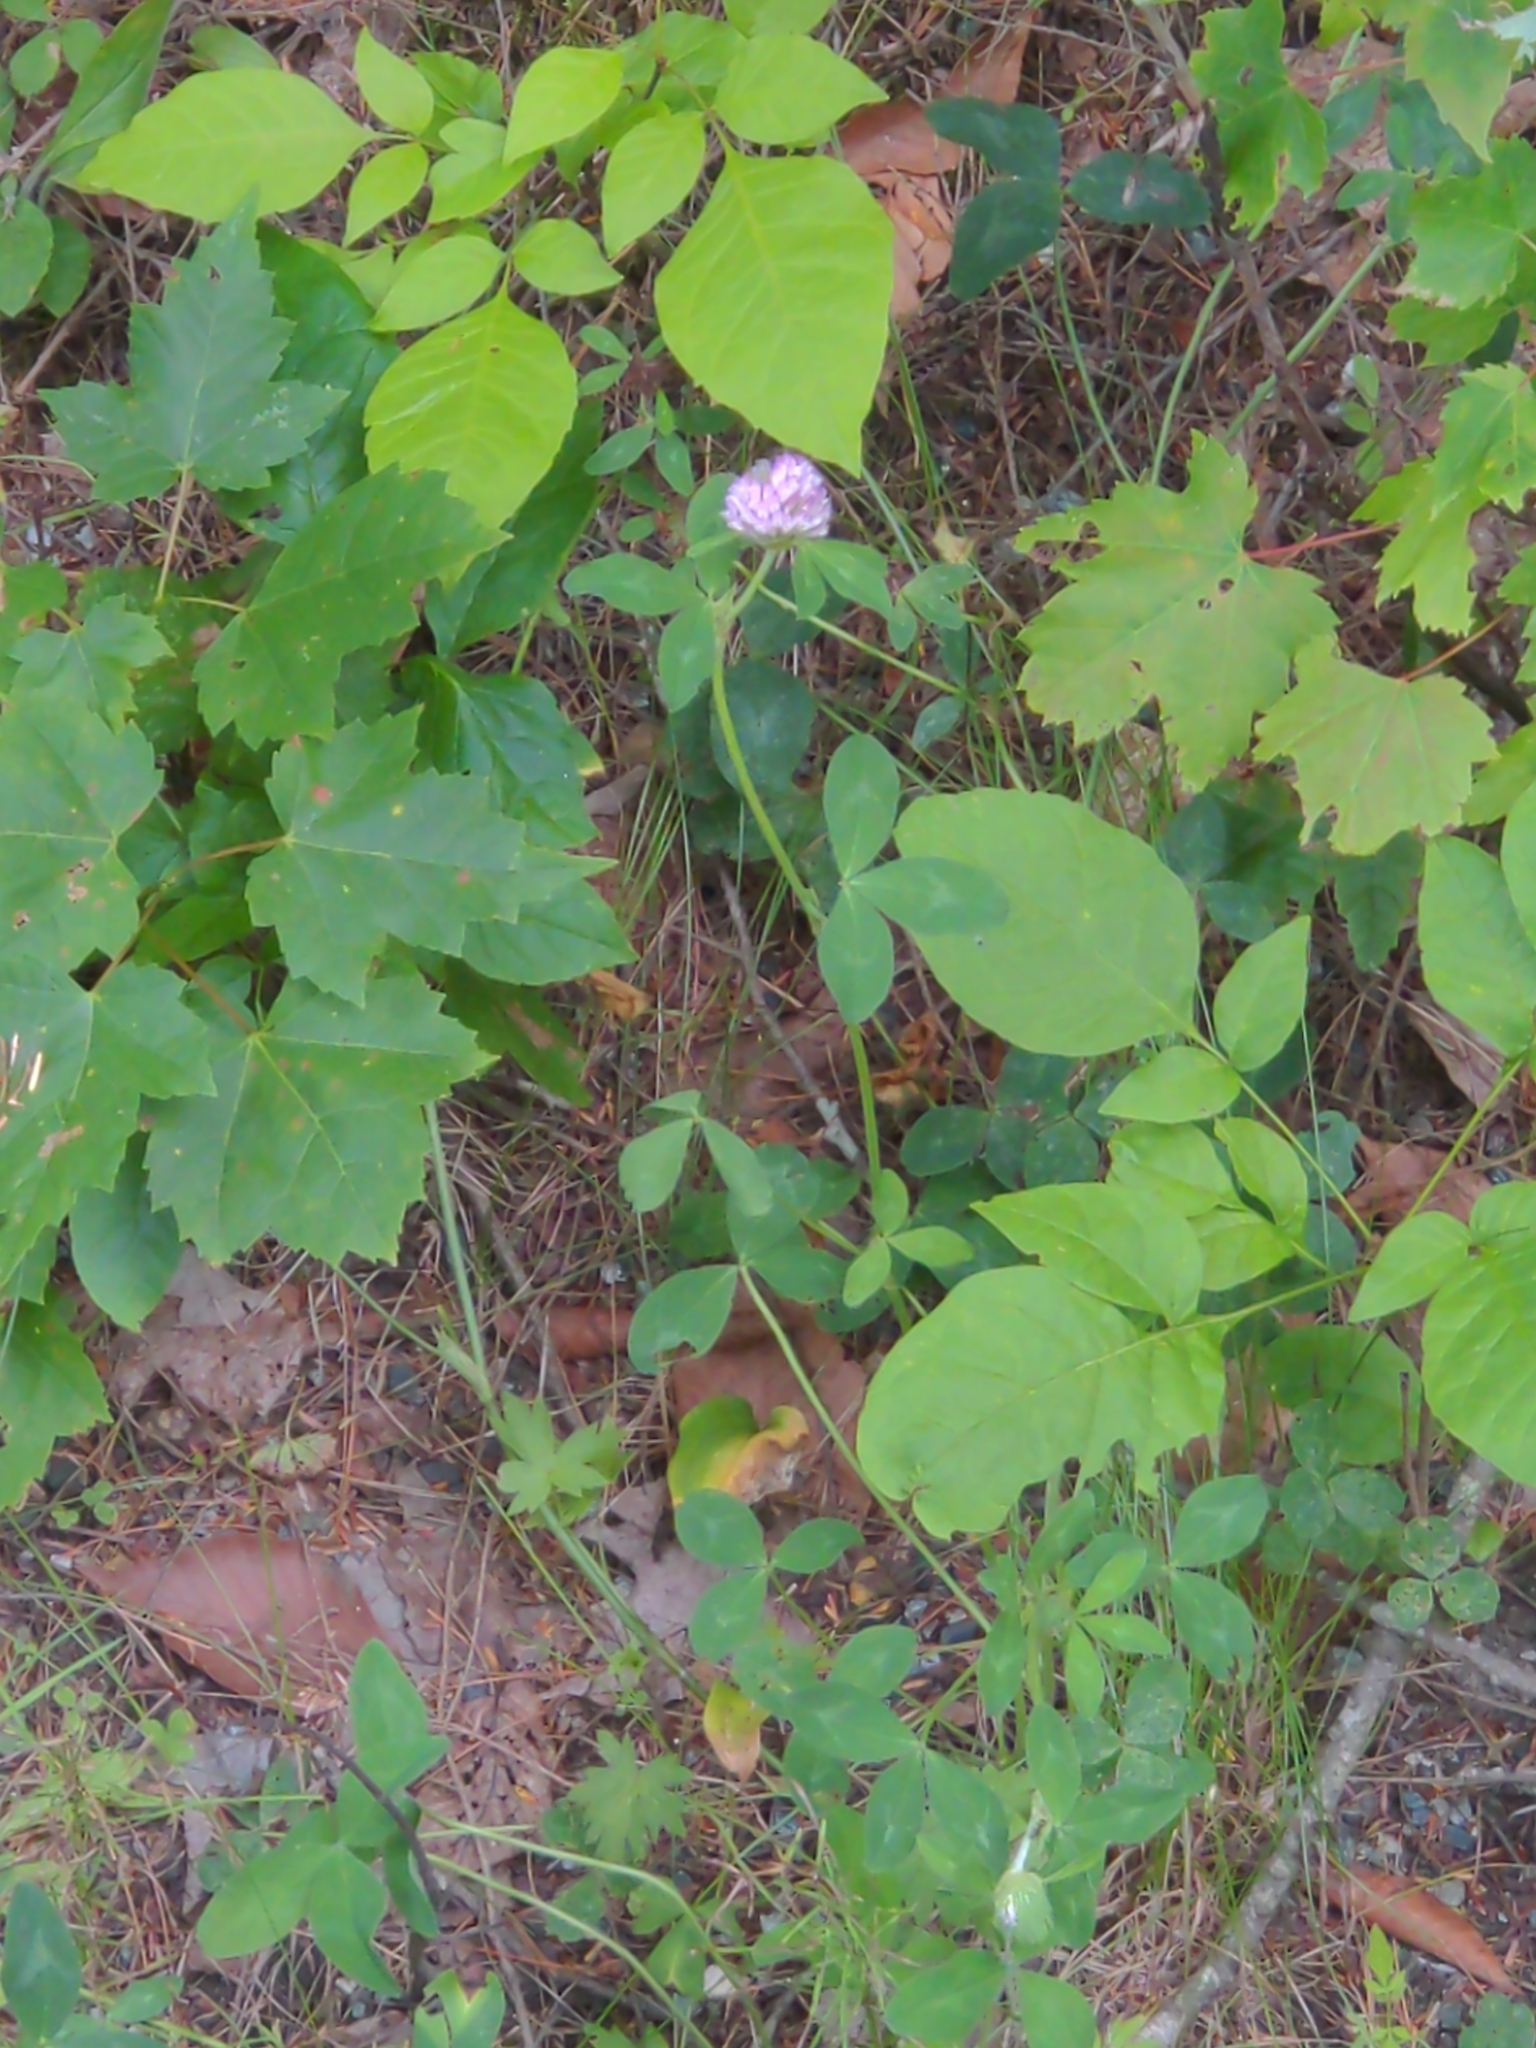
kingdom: Plantae
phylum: Tracheophyta
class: Magnoliopsida
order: Fabales
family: Fabaceae
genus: Trifolium
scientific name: Trifolium pratense
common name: Red clover
